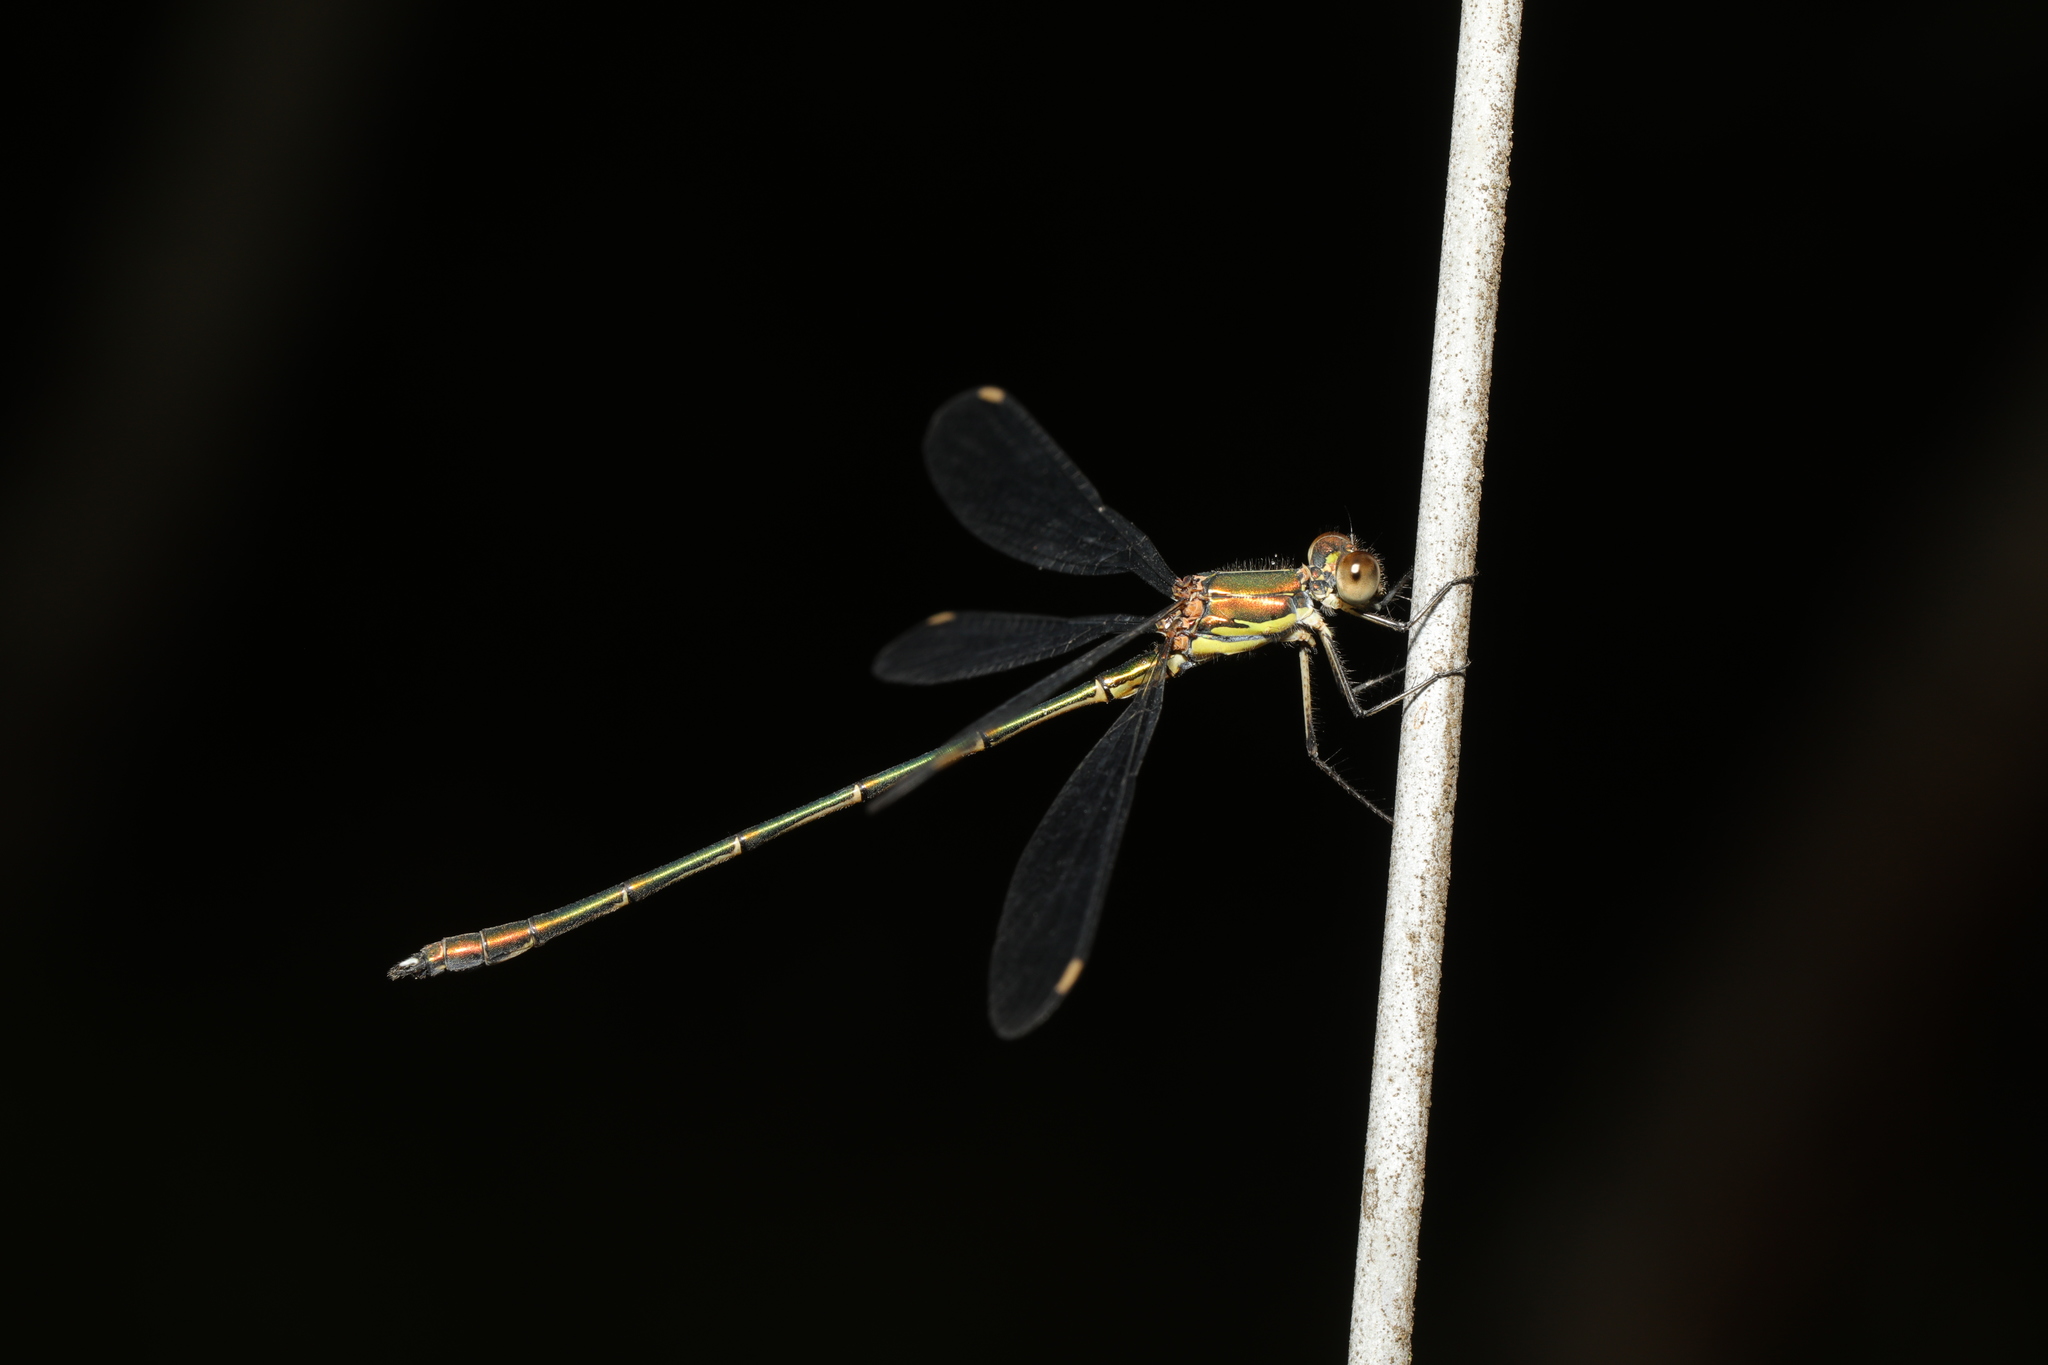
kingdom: Animalia
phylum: Arthropoda
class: Insecta
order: Odonata
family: Lestidae
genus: Chalcolestes
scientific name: Chalcolestes viridis
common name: Green emerald damselfly
